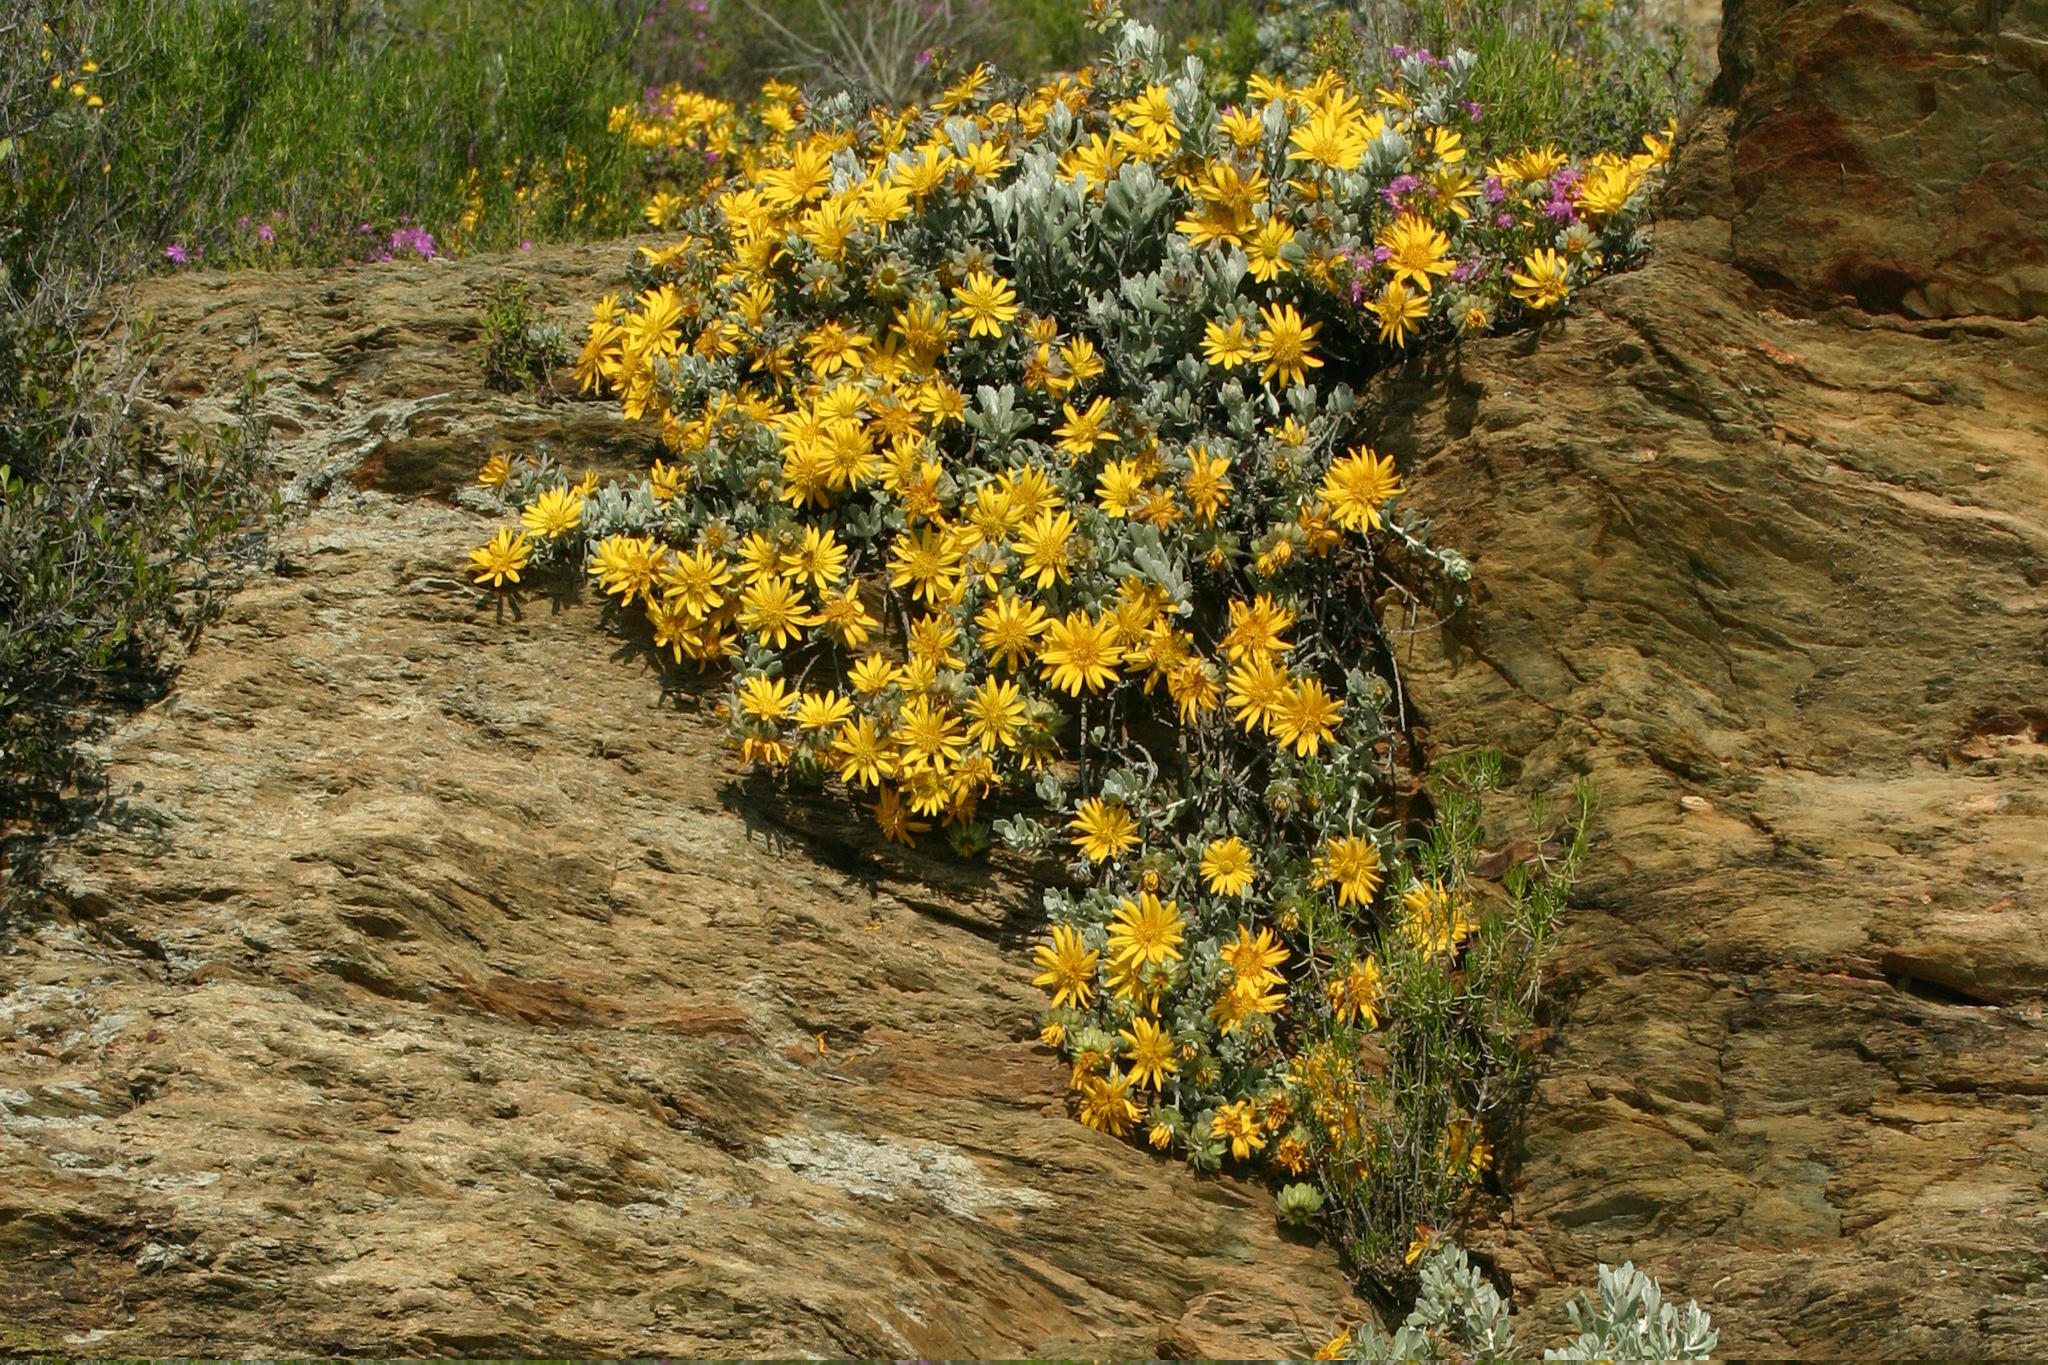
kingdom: Plantae
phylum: Tracheophyta
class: Magnoliopsida
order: Asterales
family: Asteraceae
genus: Berkheya
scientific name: Berkheya cuneata
